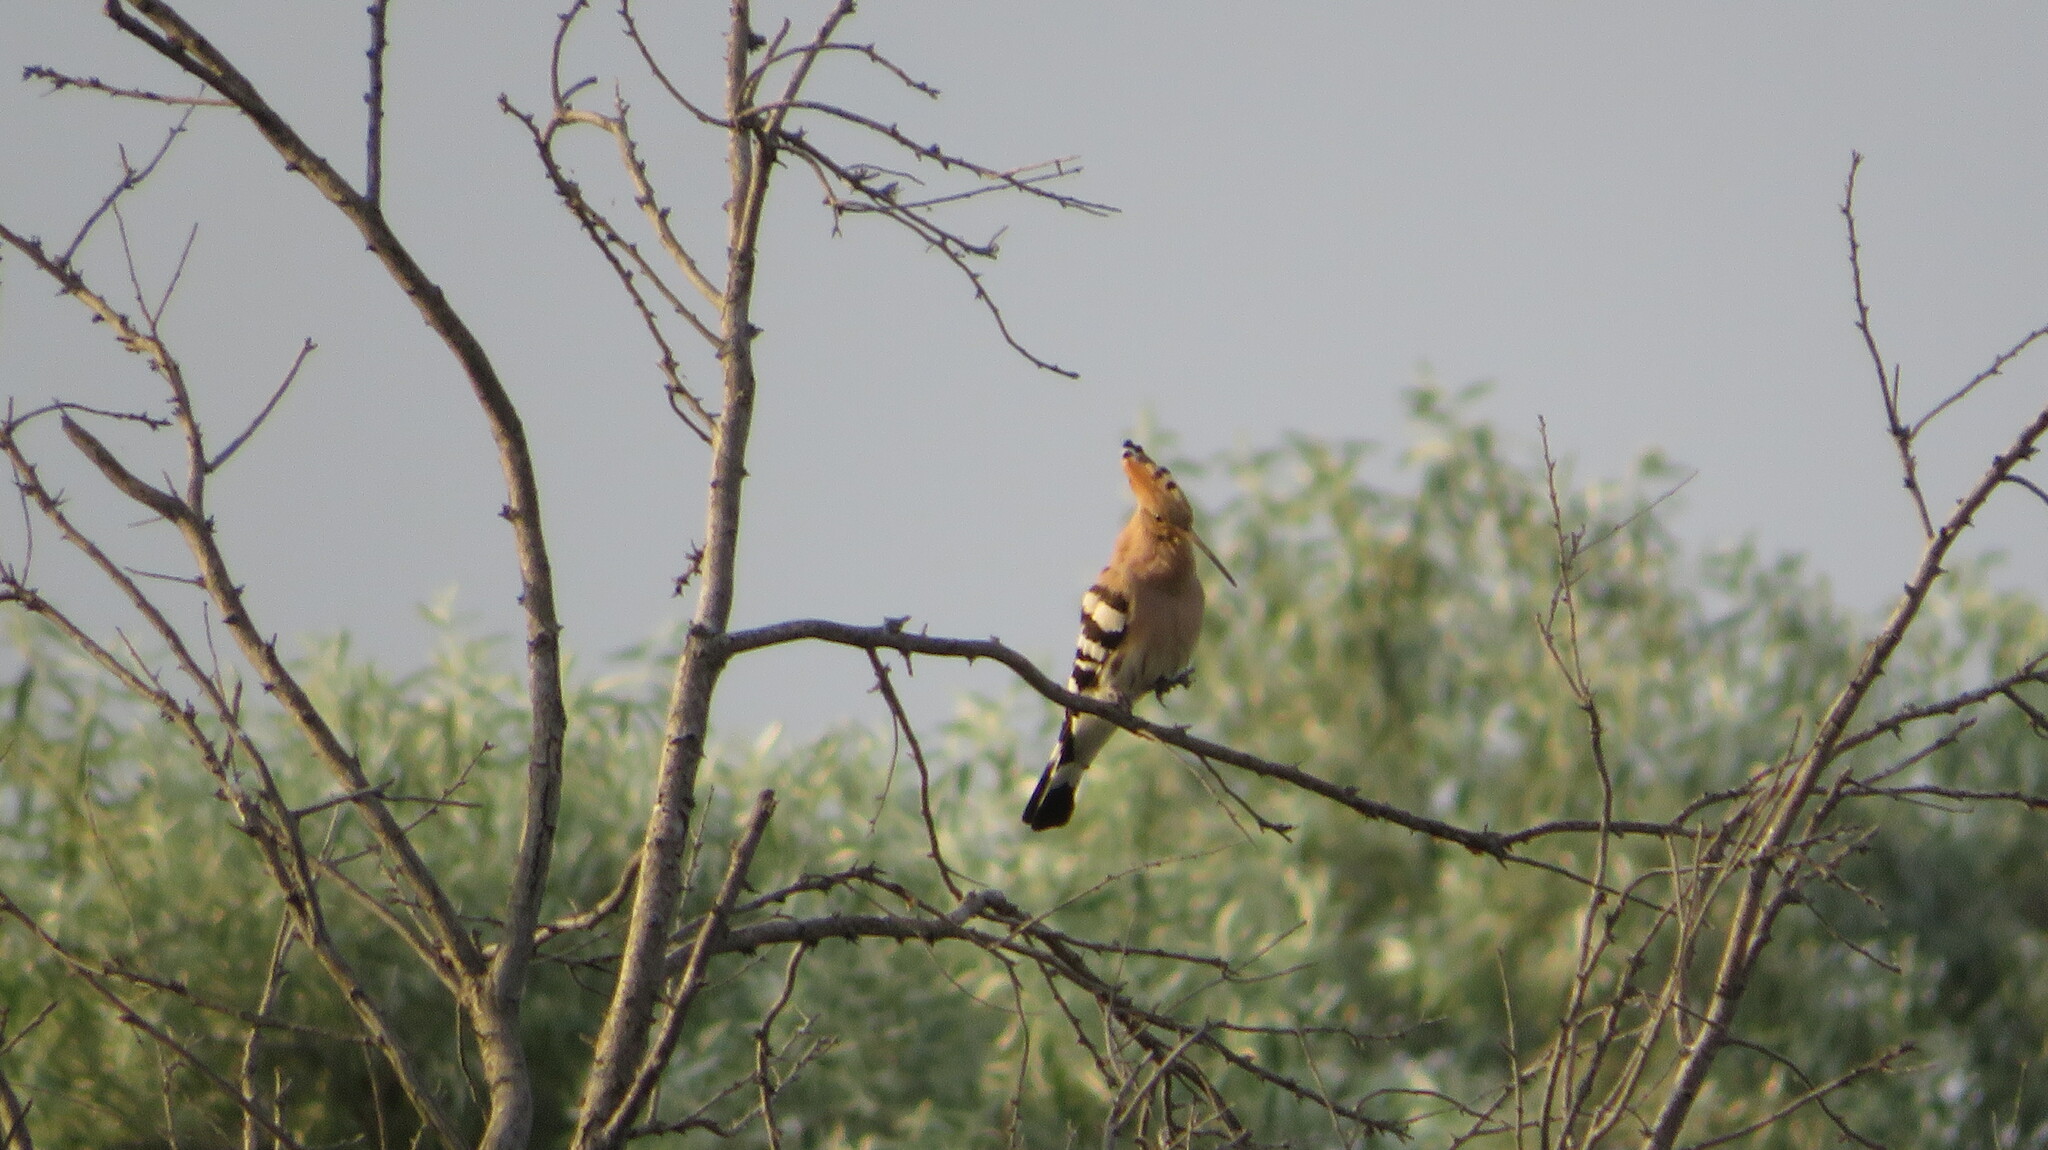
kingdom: Animalia
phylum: Chordata
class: Aves
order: Bucerotiformes
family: Upupidae
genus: Upupa
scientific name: Upupa epops
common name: Eurasian hoopoe
